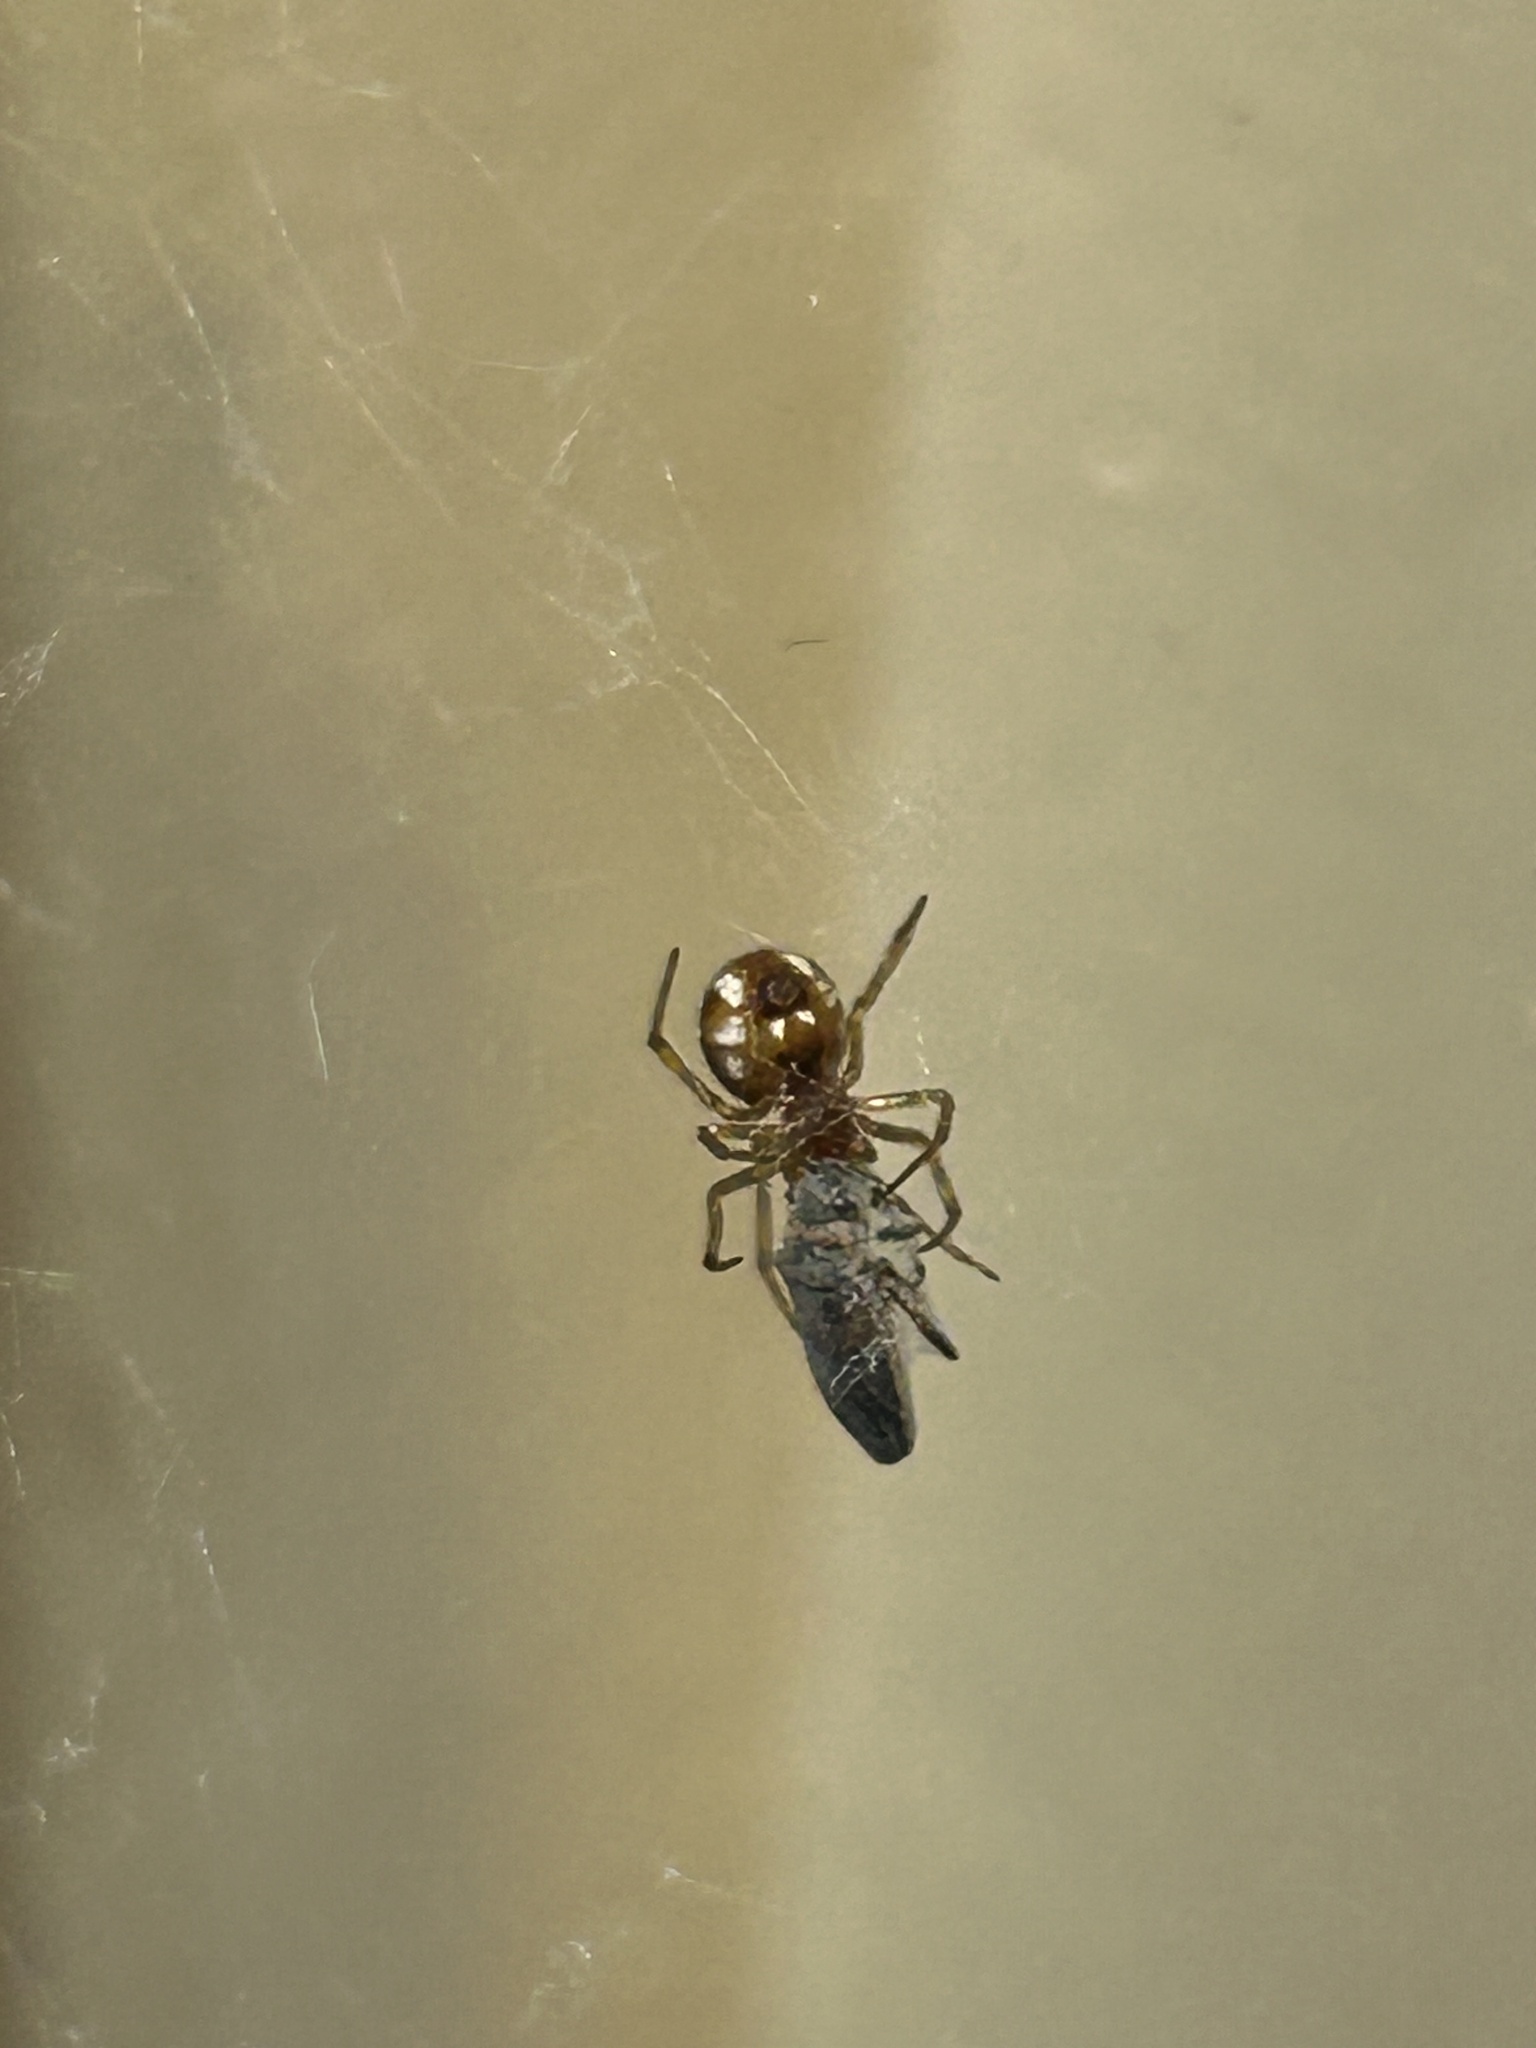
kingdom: Animalia
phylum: Arthropoda
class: Arachnida
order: Araneae
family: Theridiidae
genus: Steatoda
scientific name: Steatoda triangulosa
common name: Triangulate bud spider
